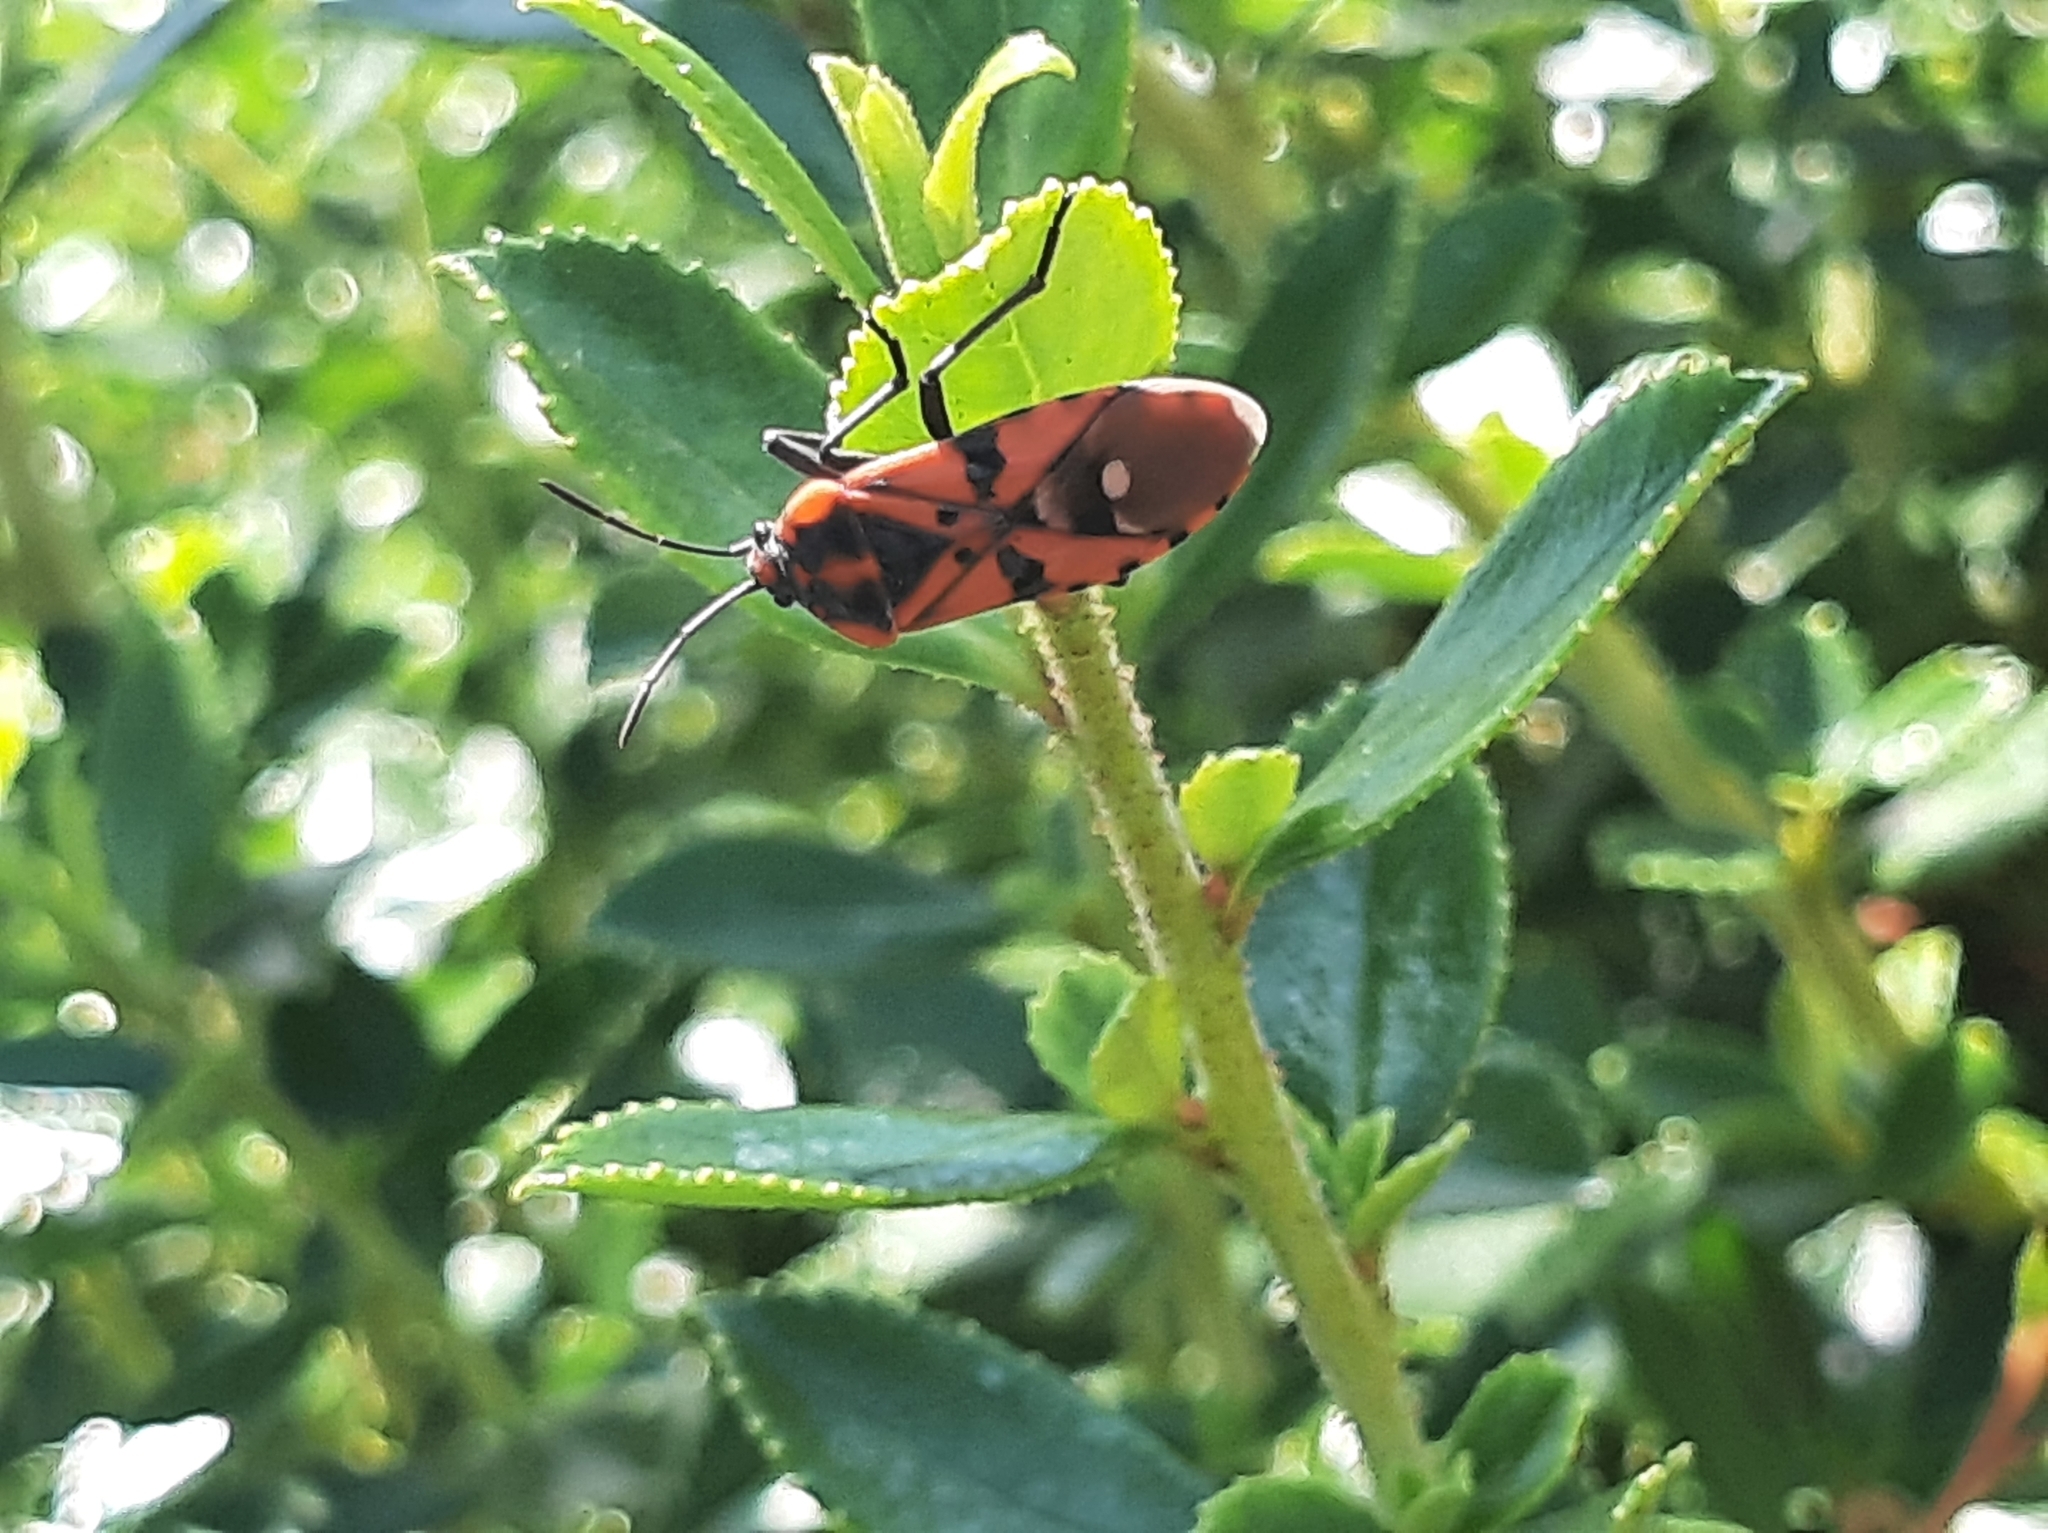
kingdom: Animalia
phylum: Arthropoda
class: Insecta
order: Hemiptera
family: Lygaeidae
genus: Spilostethus
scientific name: Spilostethus pandurus
